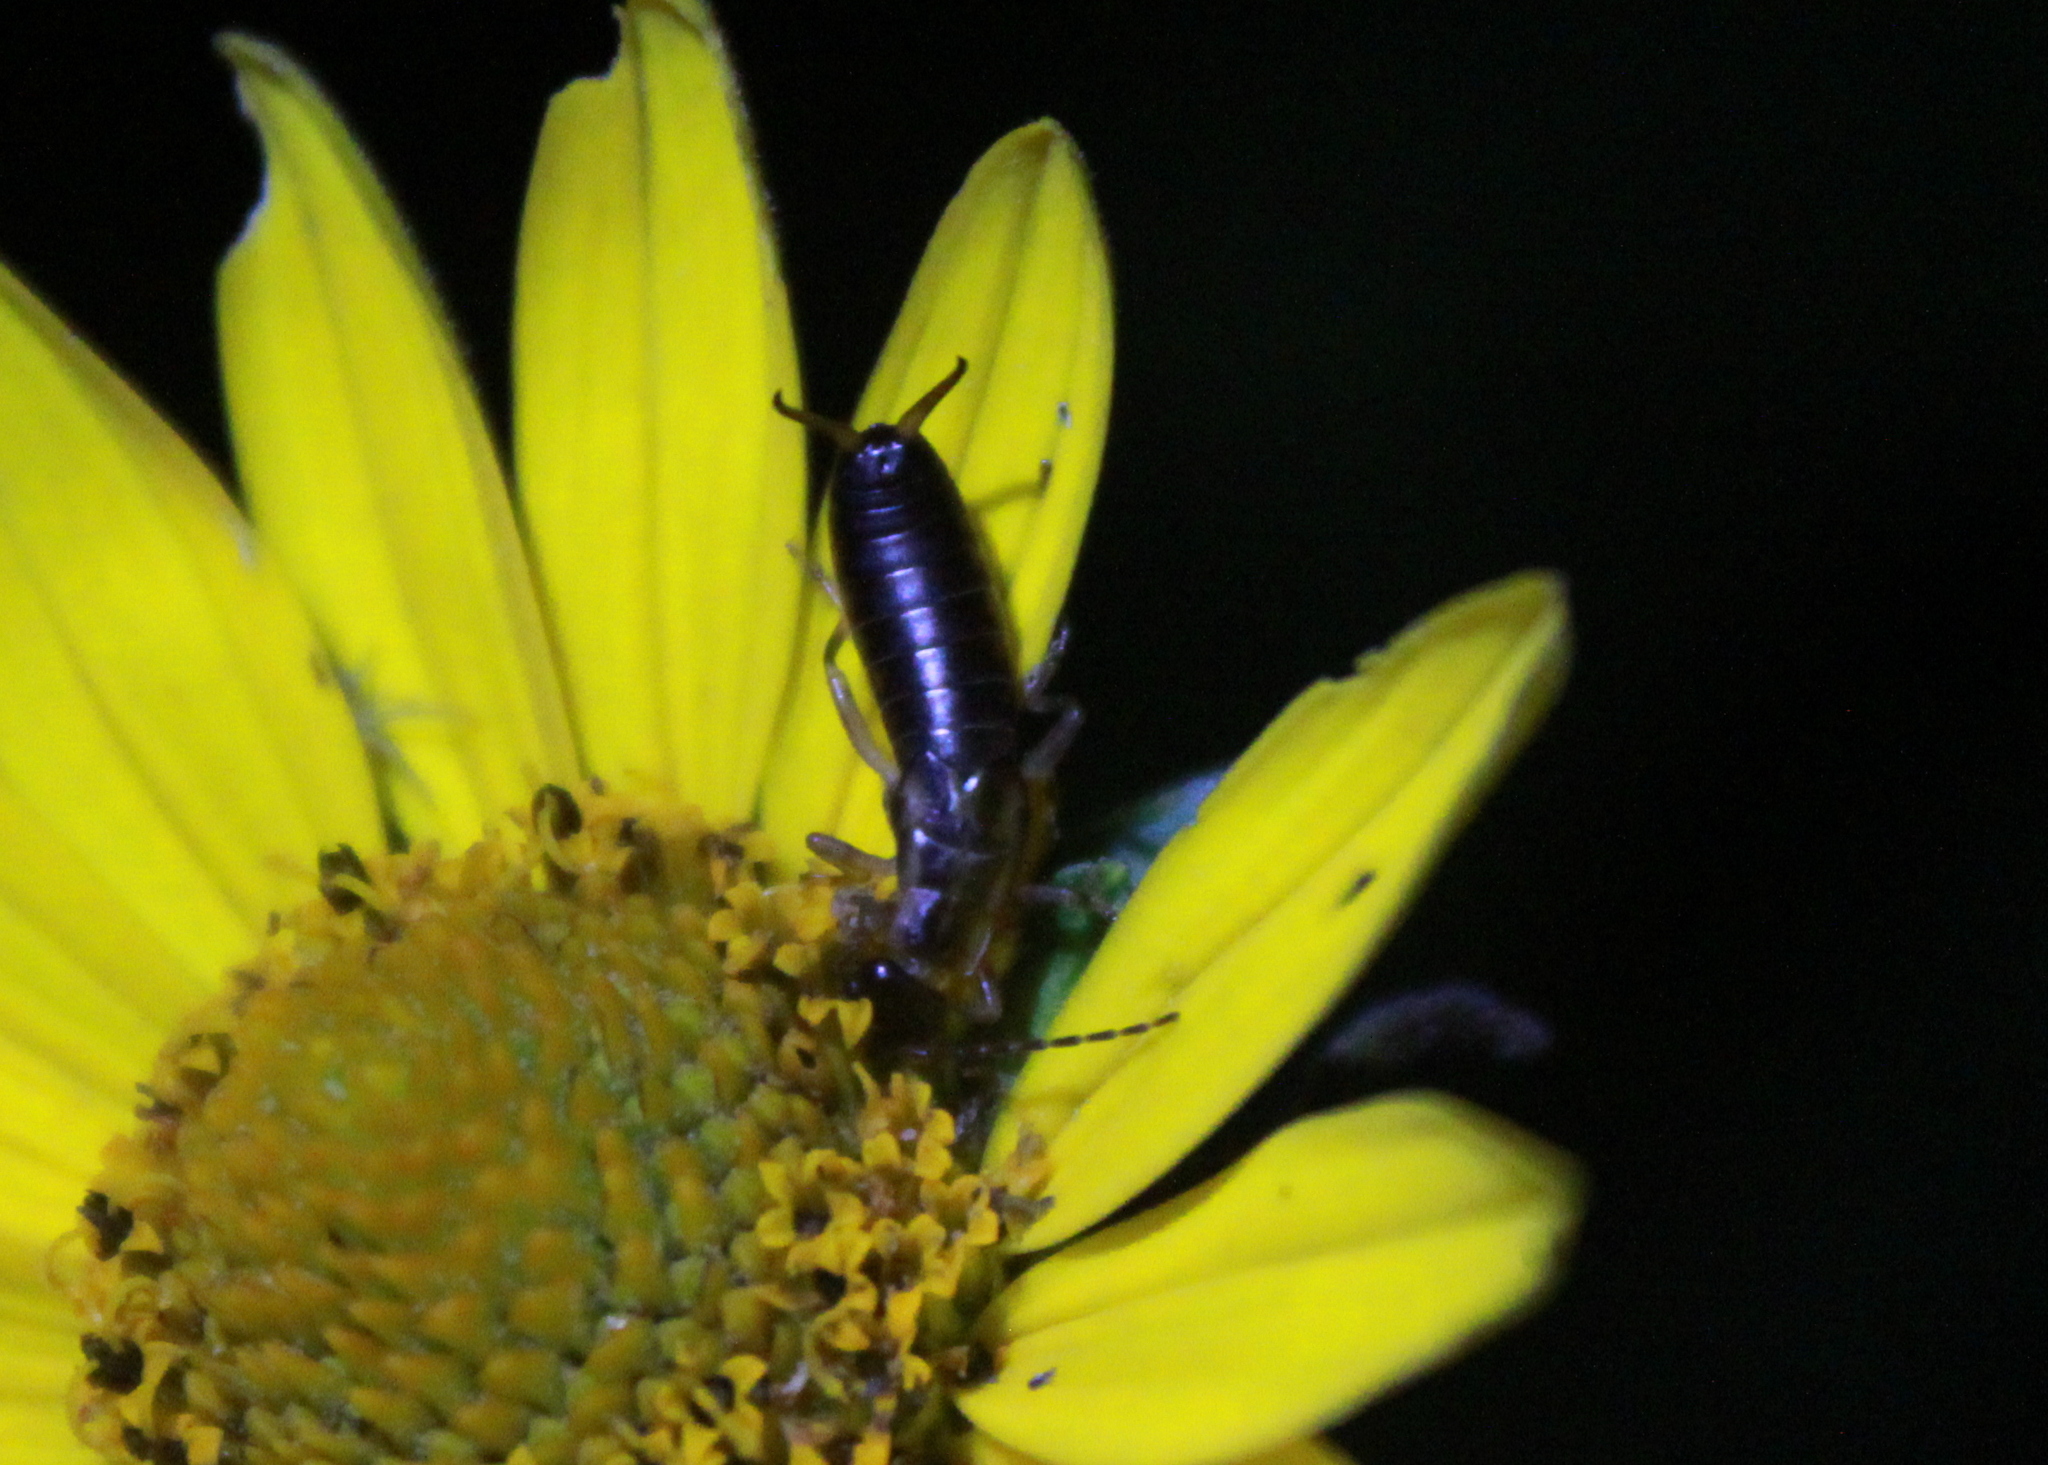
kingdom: Animalia
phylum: Arthropoda
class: Insecta
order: Dermaptera
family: Forficulidae
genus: Forficula
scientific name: Forficula
